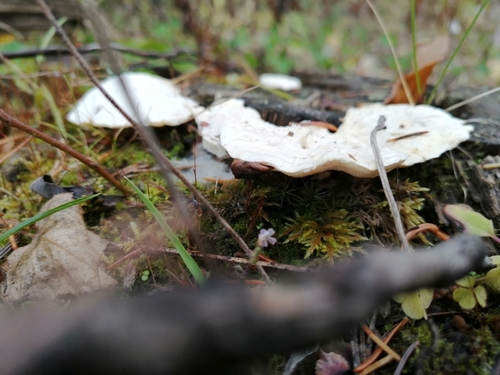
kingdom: Fungi
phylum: Basidiomycota
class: Agaricomycetes
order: Polyporales
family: Dacryobolaceae
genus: Postia
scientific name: Postia
